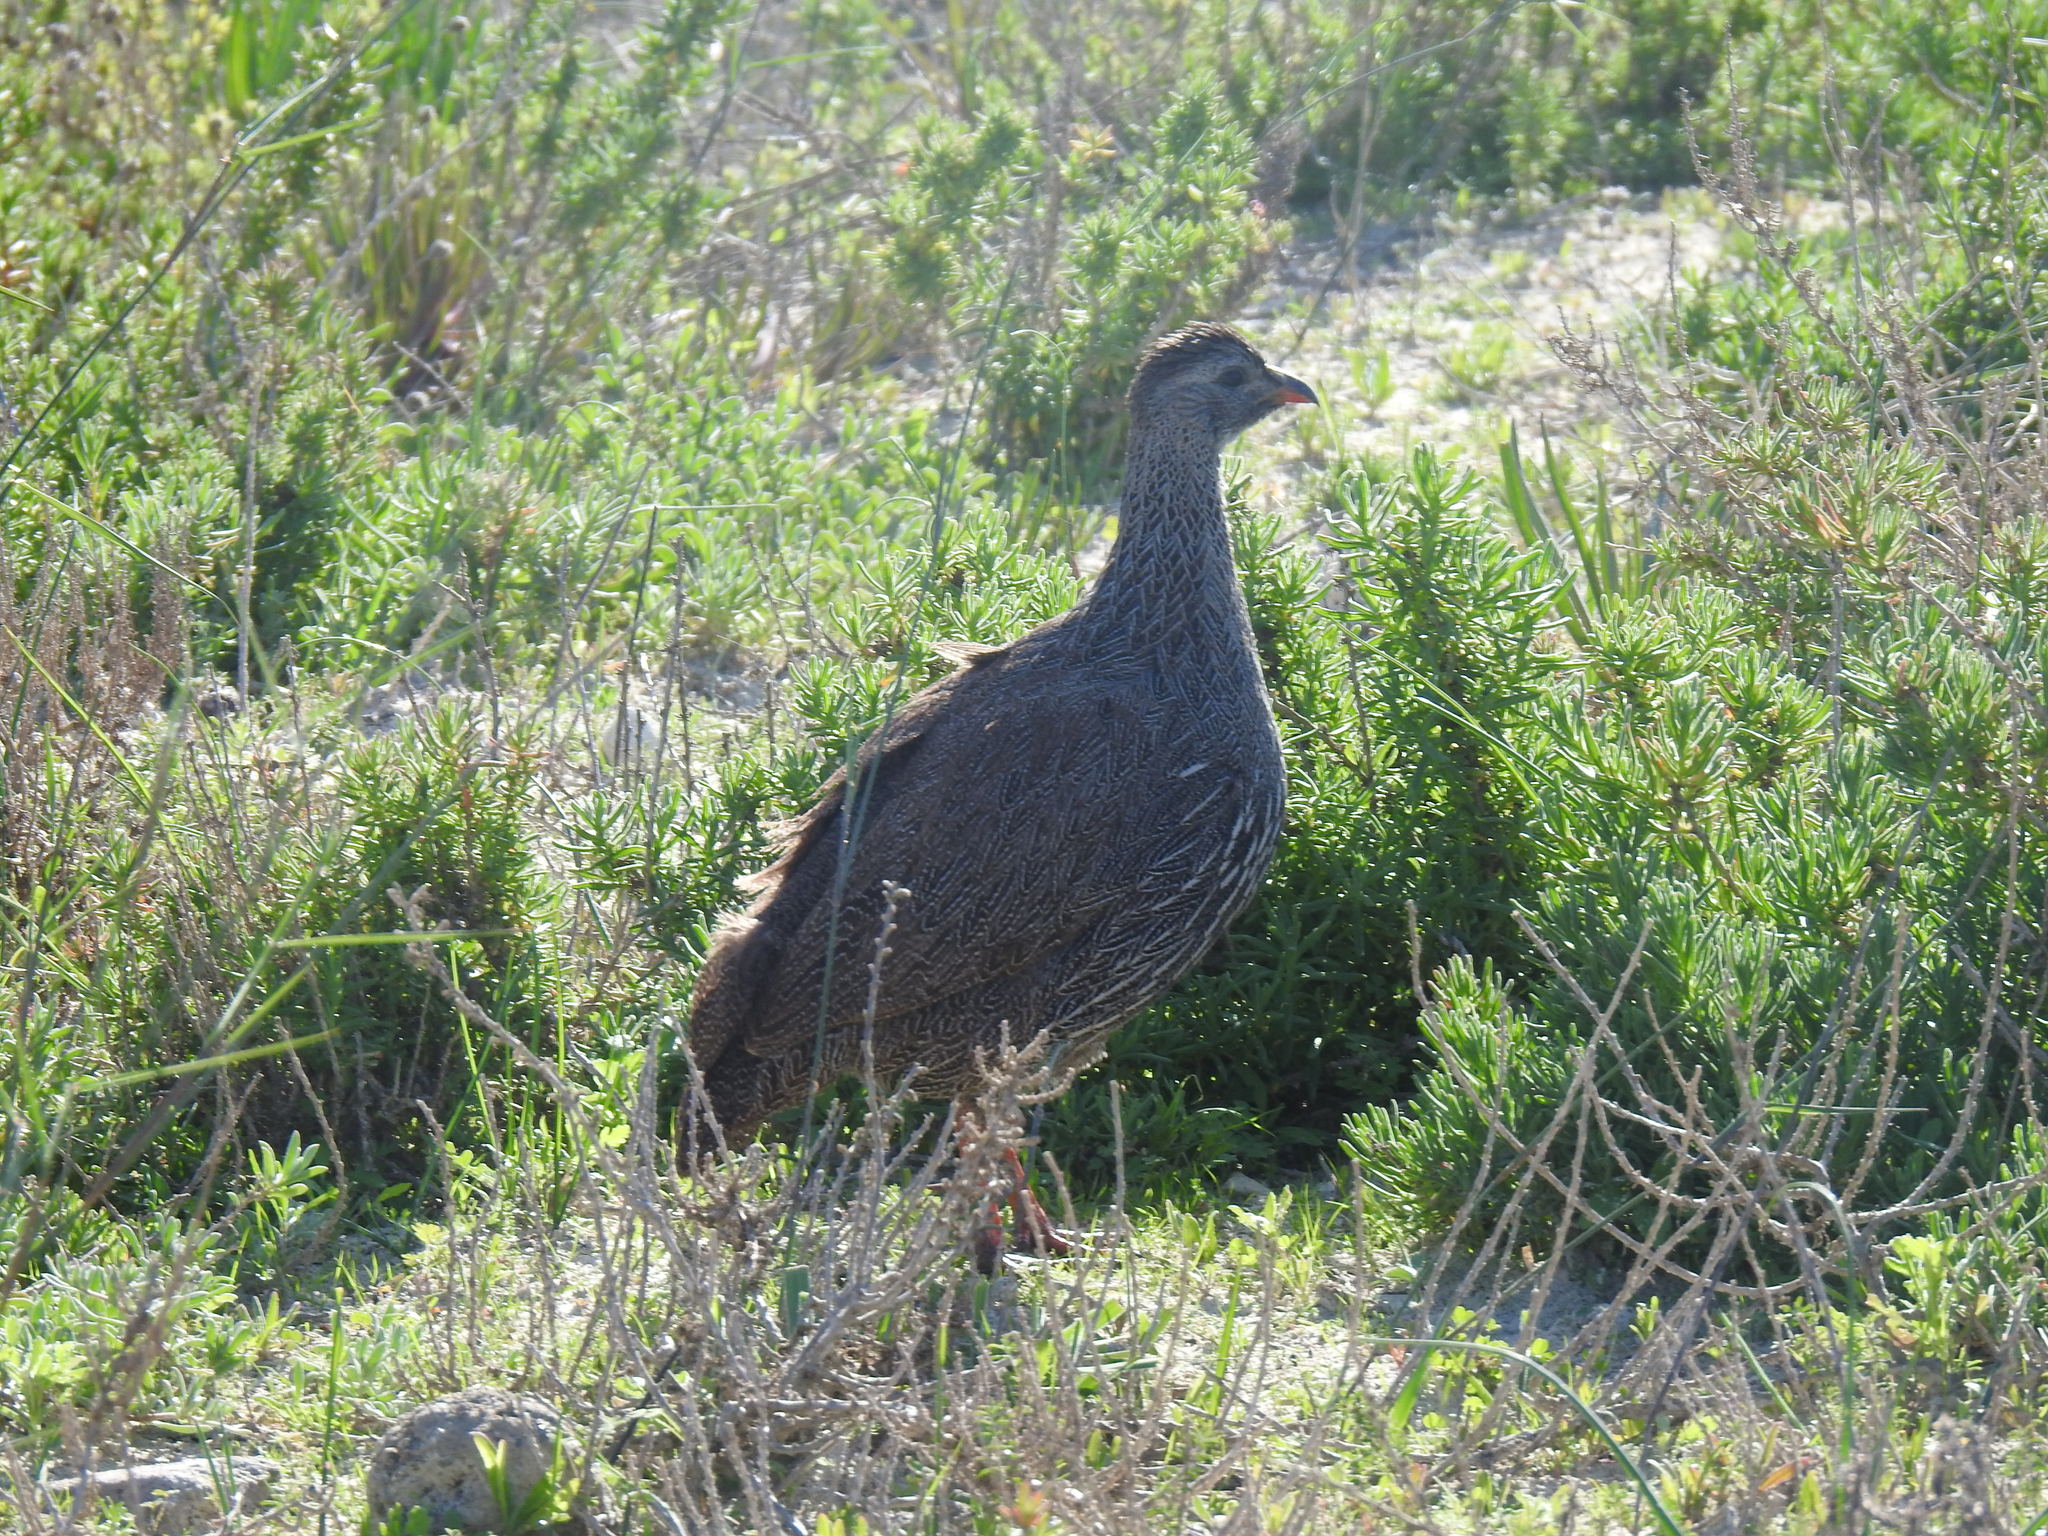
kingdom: Animalia
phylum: Chordata
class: Aves
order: Galliformes
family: Phasianidae
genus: Pternistis
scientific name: Pternistis capensis
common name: Cape spurfowl
